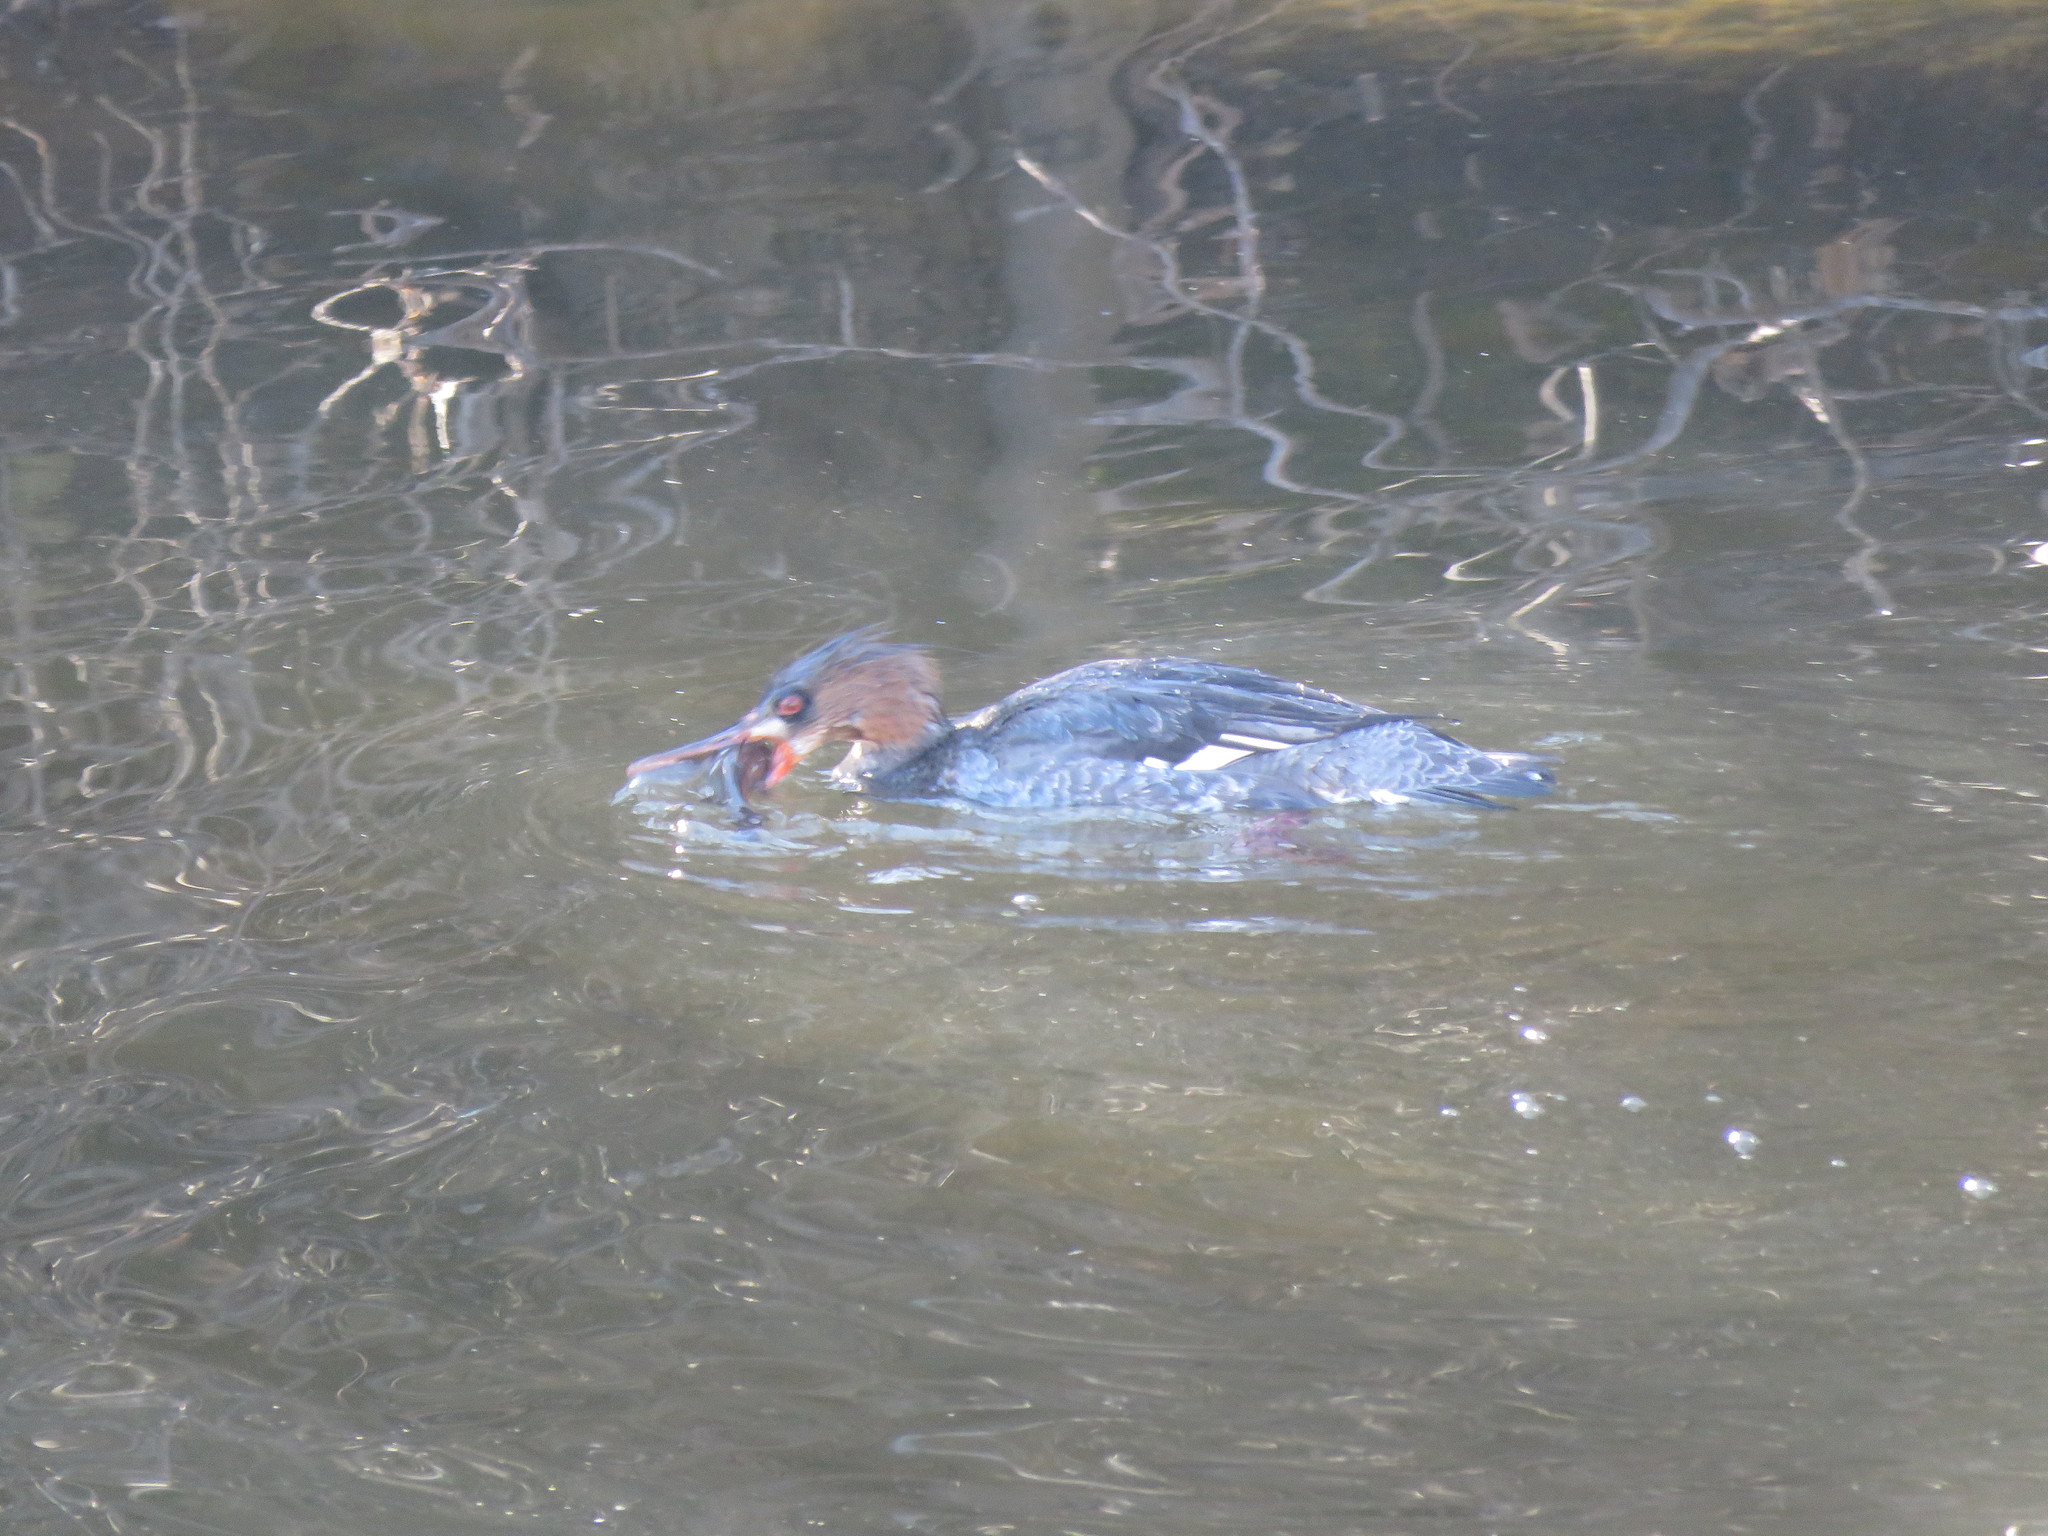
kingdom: Animalia
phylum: Chordata
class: Aves
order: Anseriformes
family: Anatidae
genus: Mergus
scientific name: Mergus serrator
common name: Red-breasted merganser
